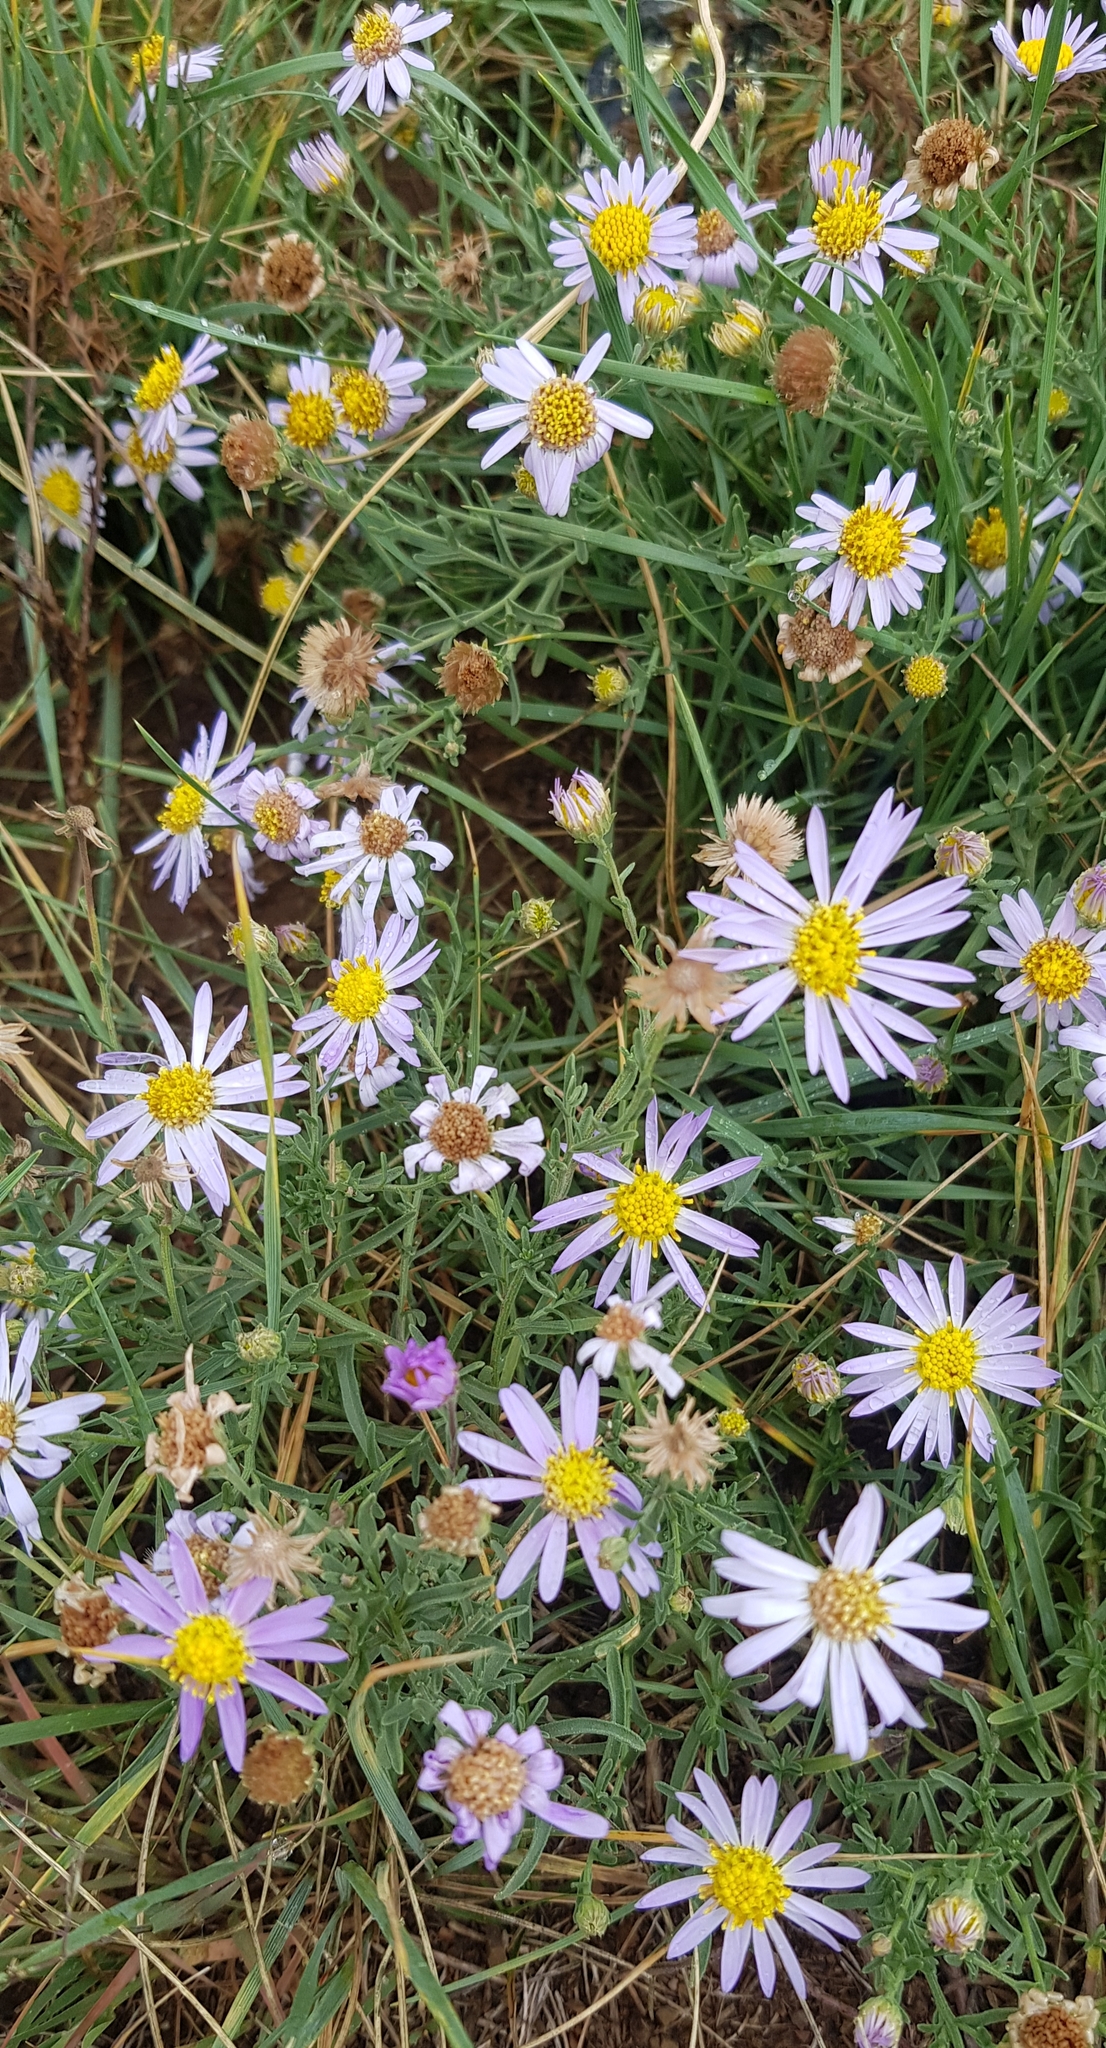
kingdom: Plantae
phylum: Tracheophyta
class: Magnoliopsida
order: Asterales
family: Asteraceae
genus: Heteropappus
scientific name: Heteropappus altaicus
